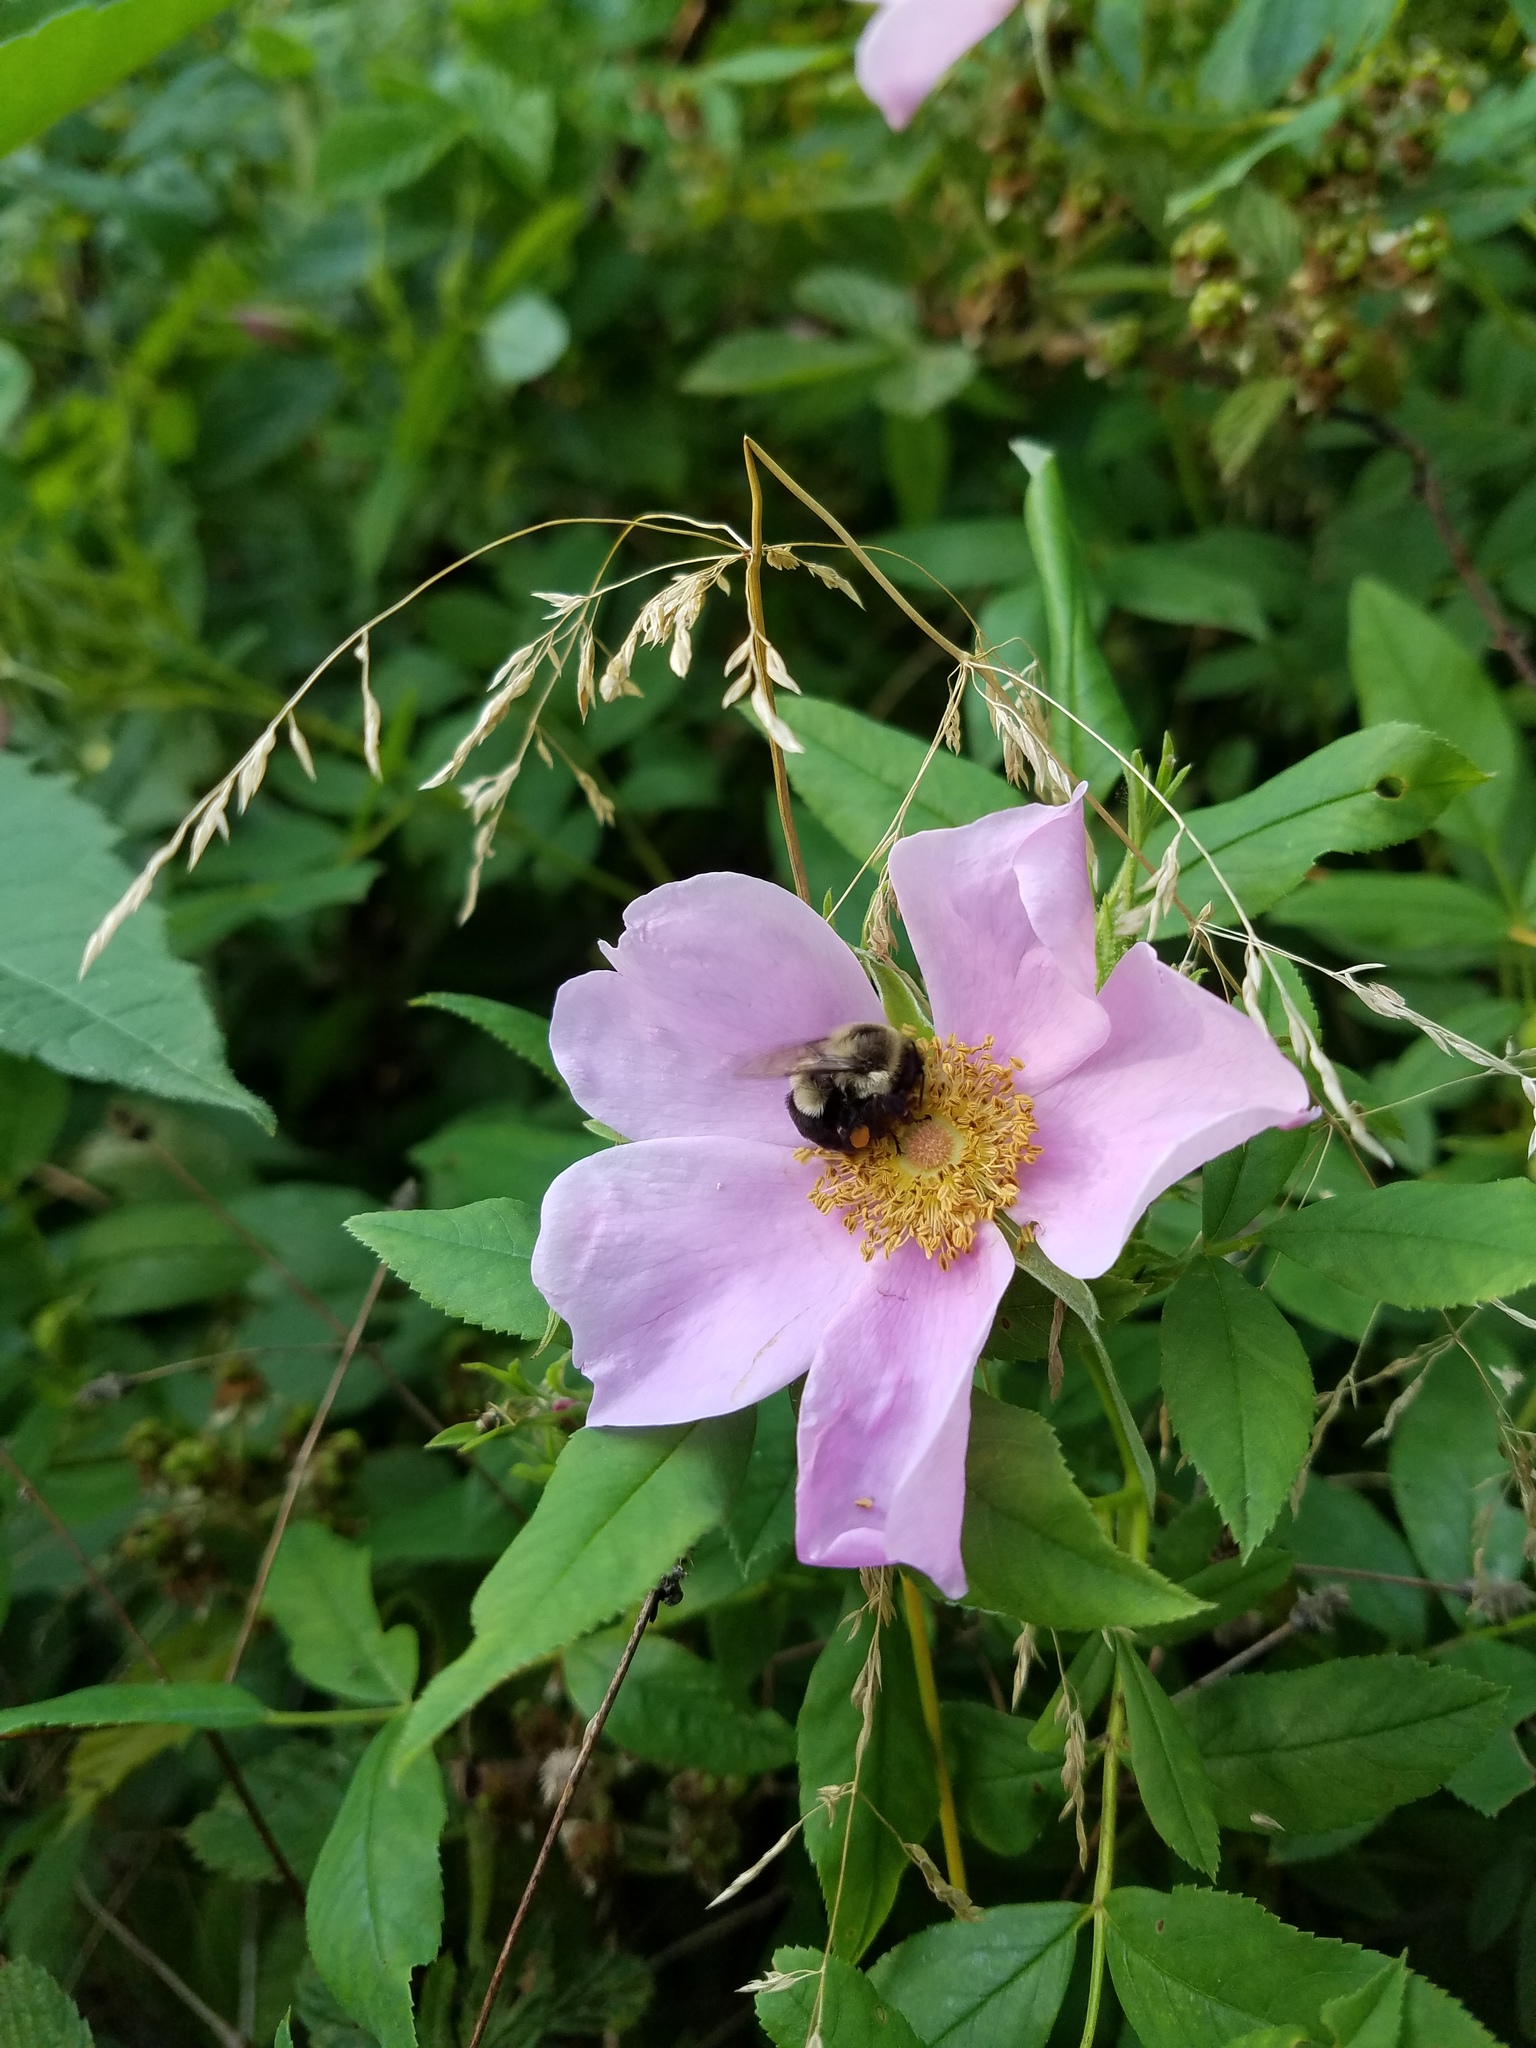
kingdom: Plantae
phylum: Tracheophyta
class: Magnoliopsida
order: Rosales
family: Rosaceae
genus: Rosa
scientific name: Rosa palustris
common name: Swamp rose
